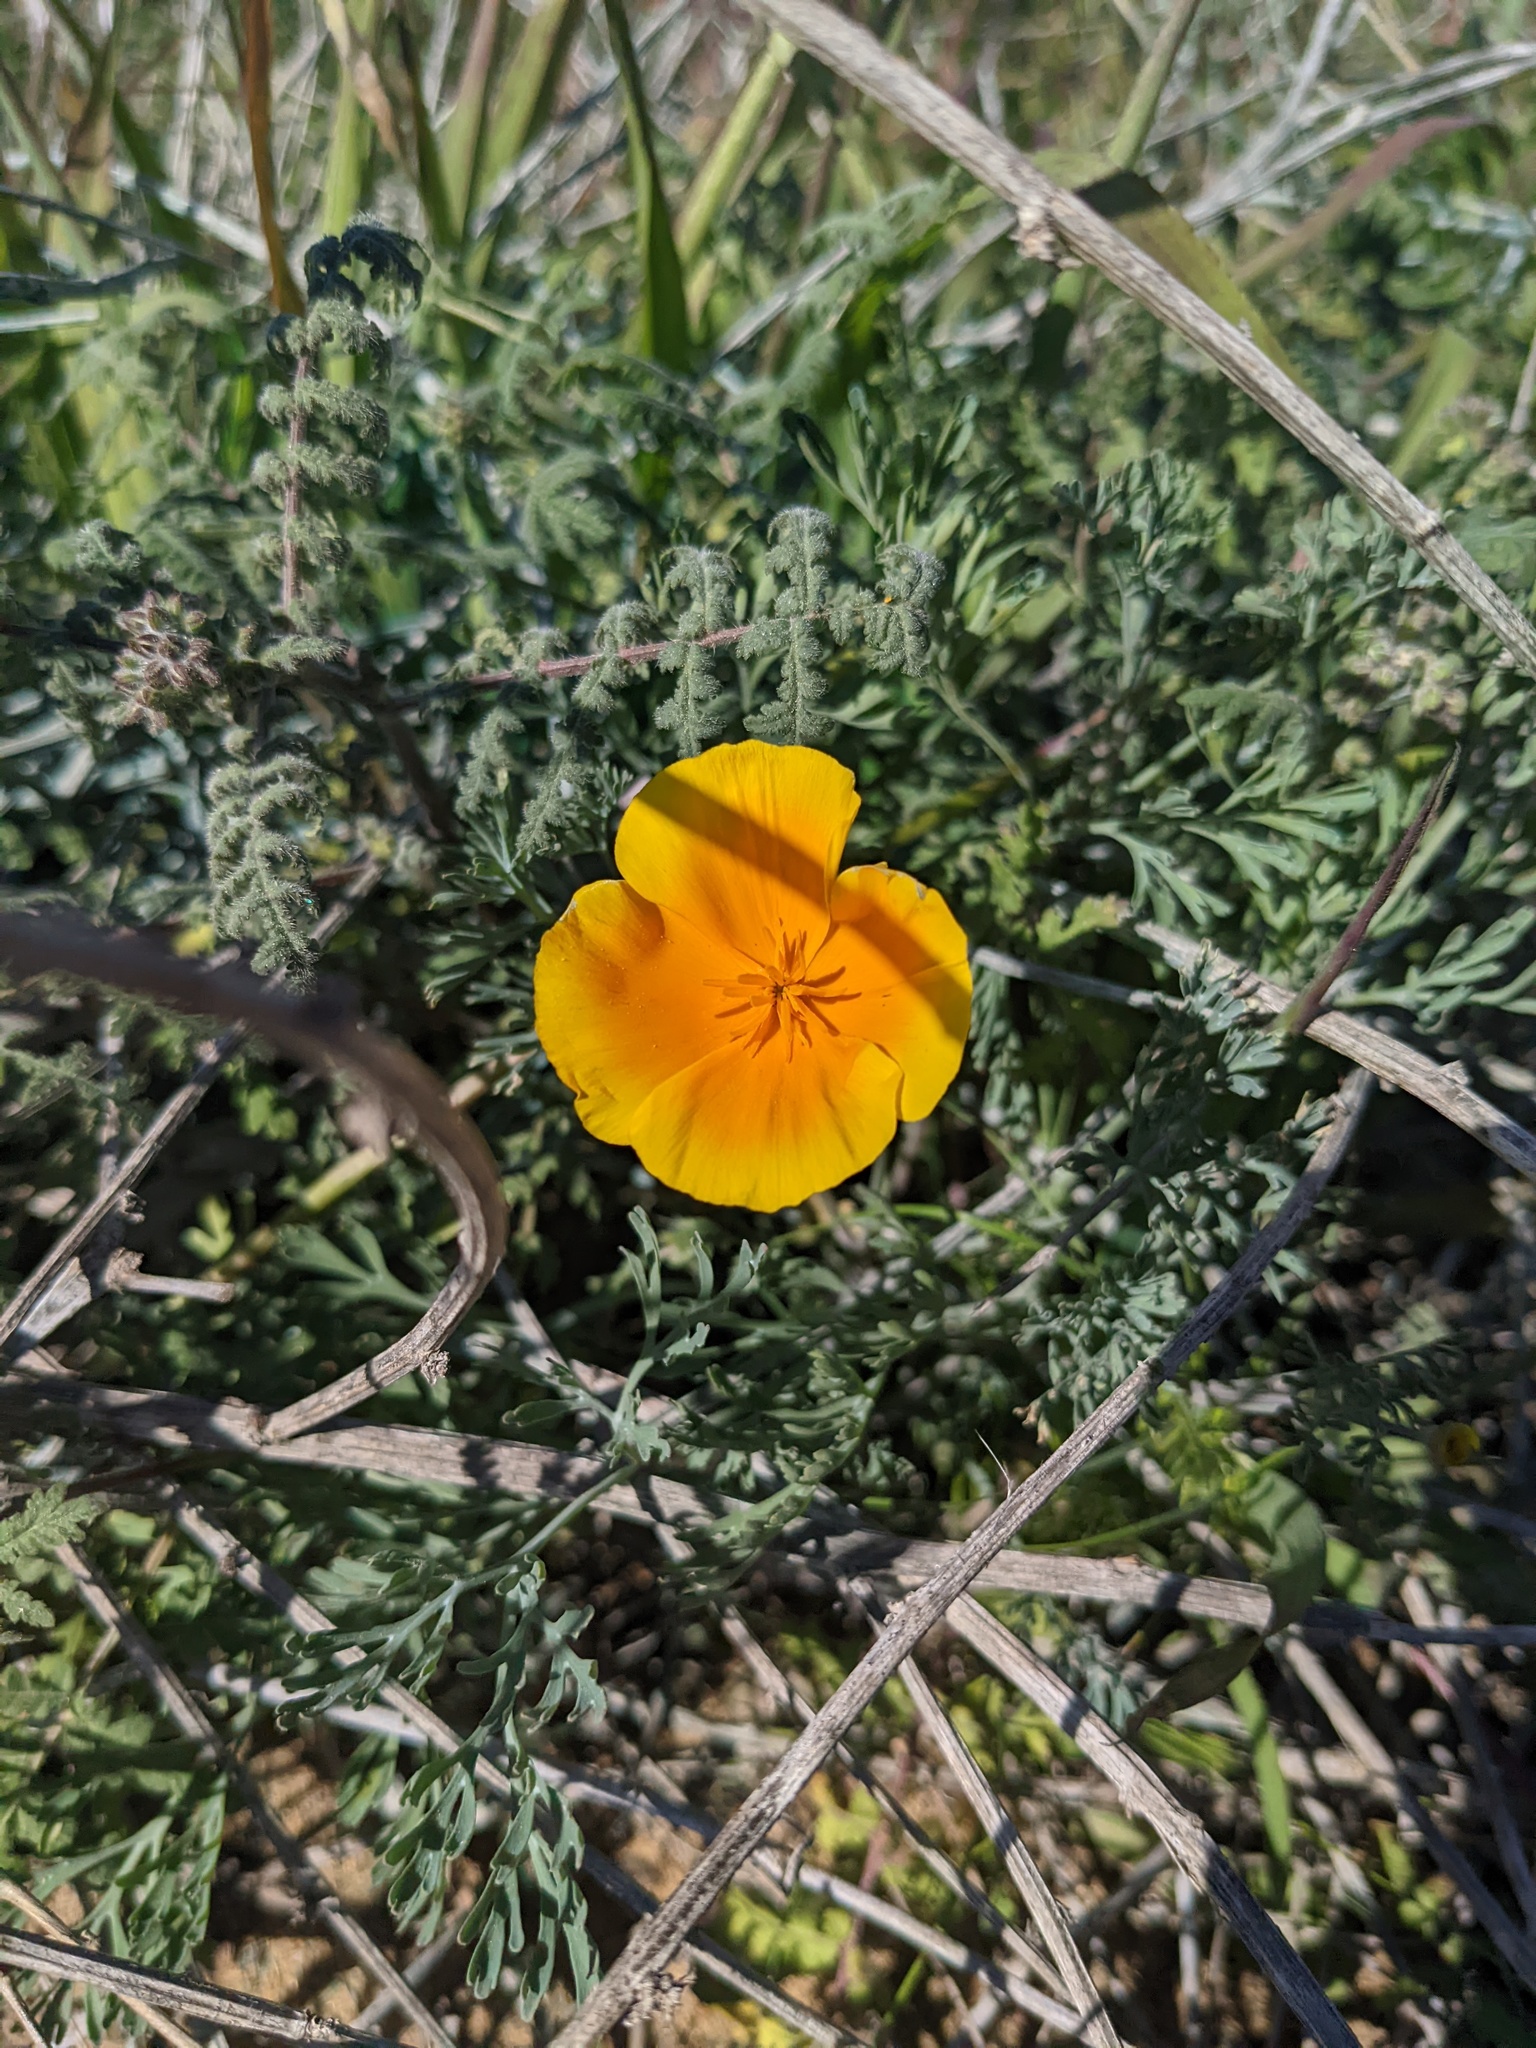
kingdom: Plantae
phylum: Tracheophyta
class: Magnoliopsida
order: Ranunculales
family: Papaveraceae
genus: Eschscholzia
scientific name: Eschscholzia californica
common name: California poppy
